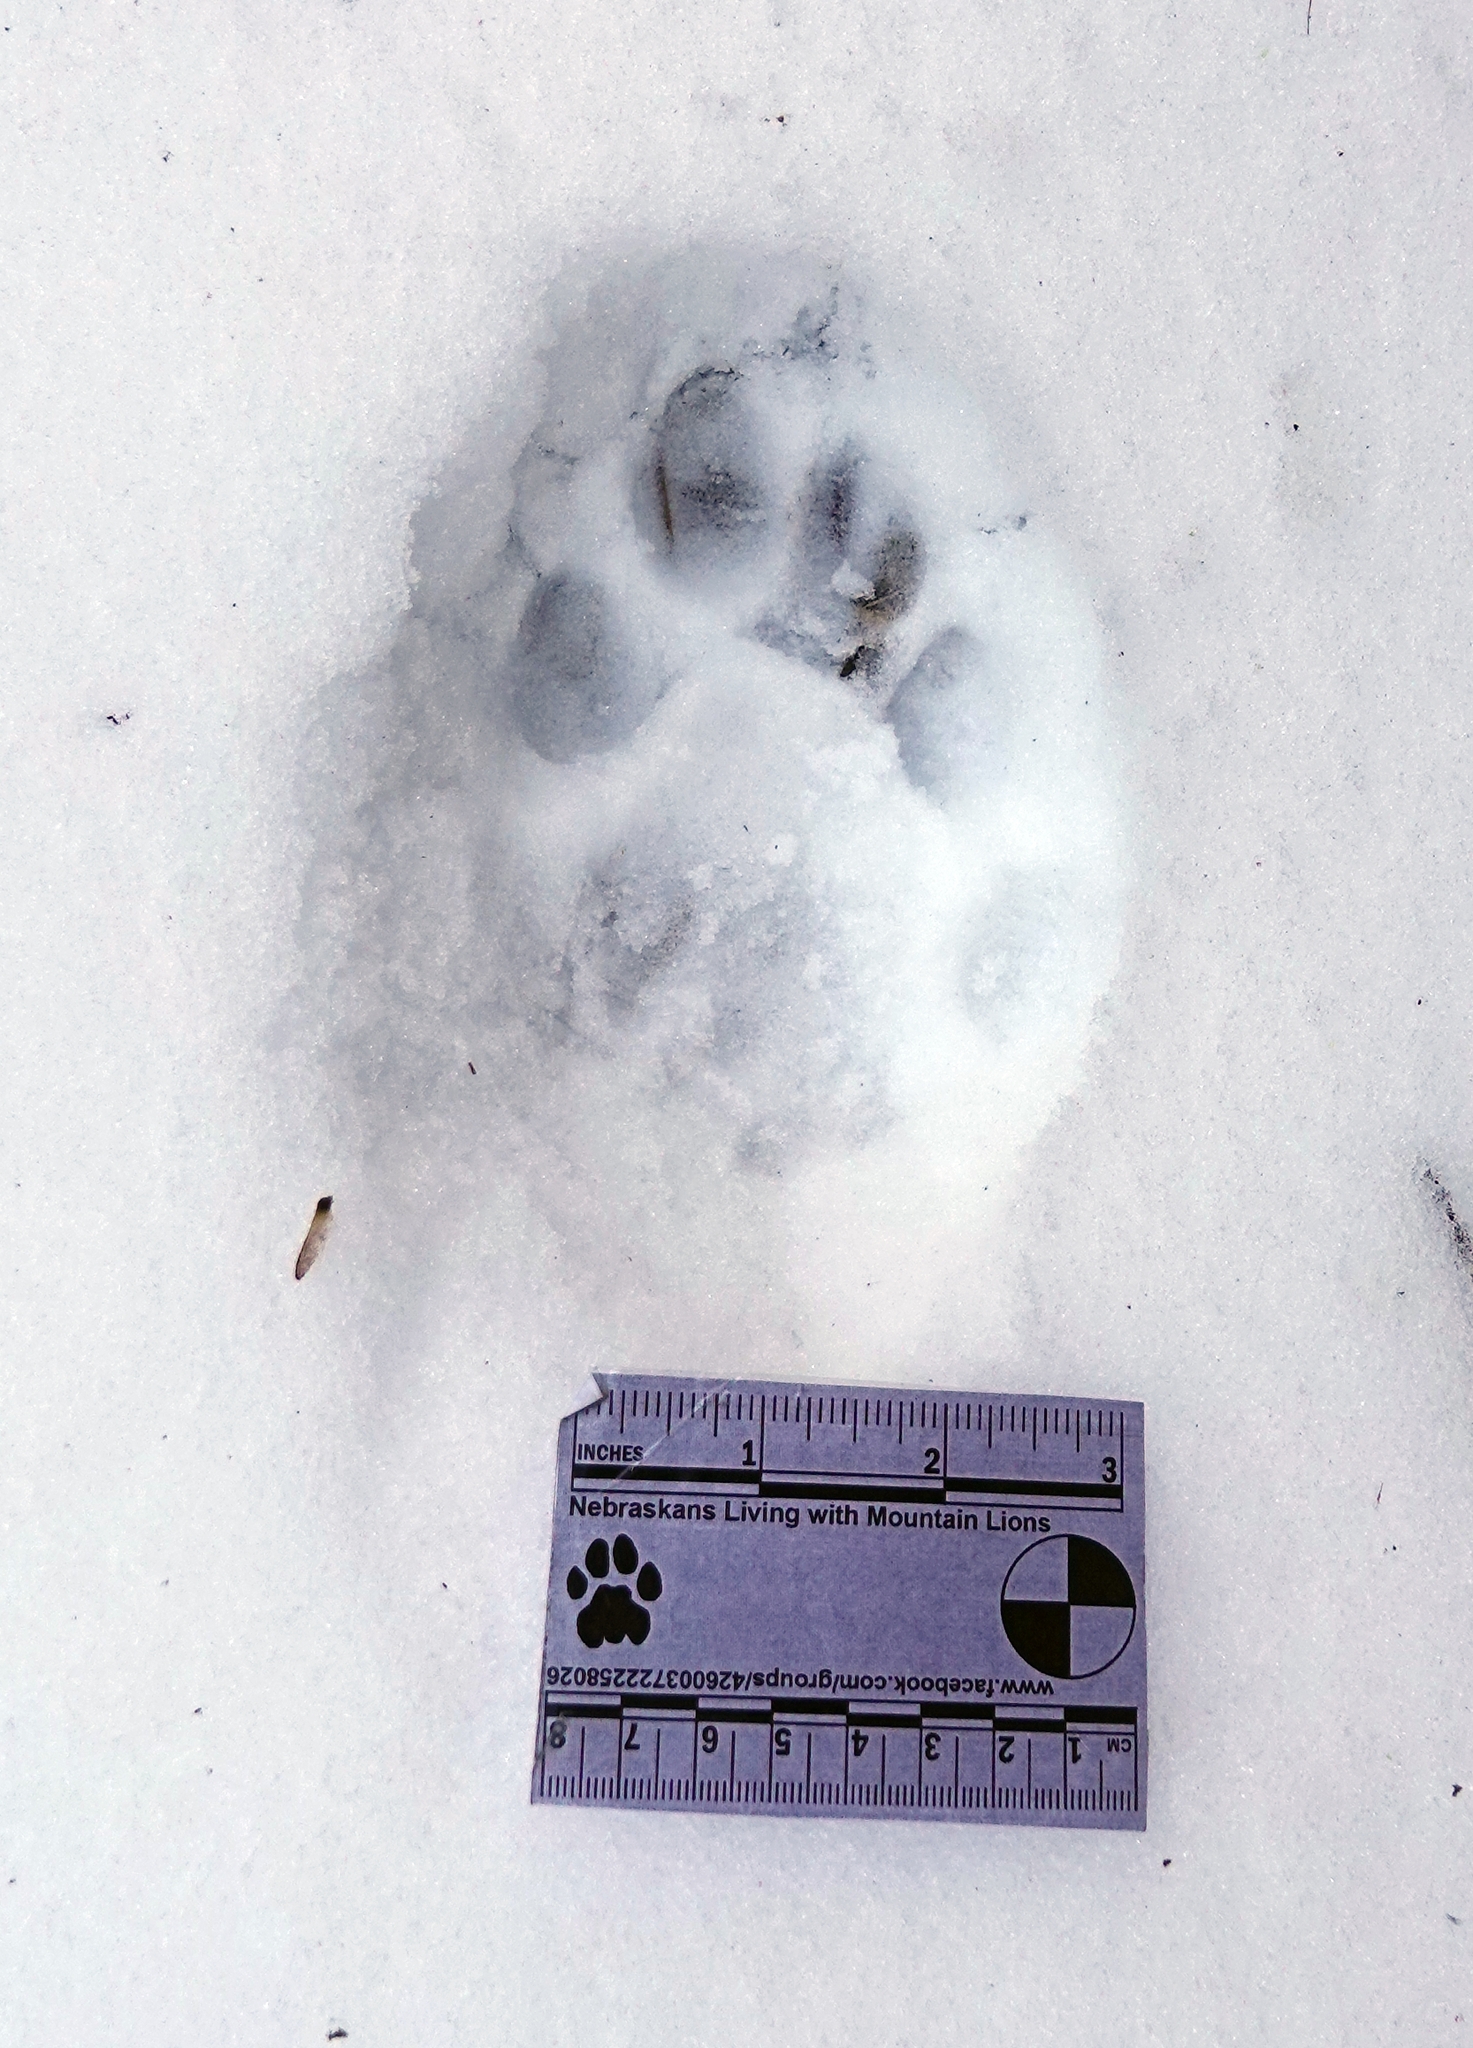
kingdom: Animalia
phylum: Chordata
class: Mammalia
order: Carnivora
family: Felidae
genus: Puma
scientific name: Puma concolor
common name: Puma
